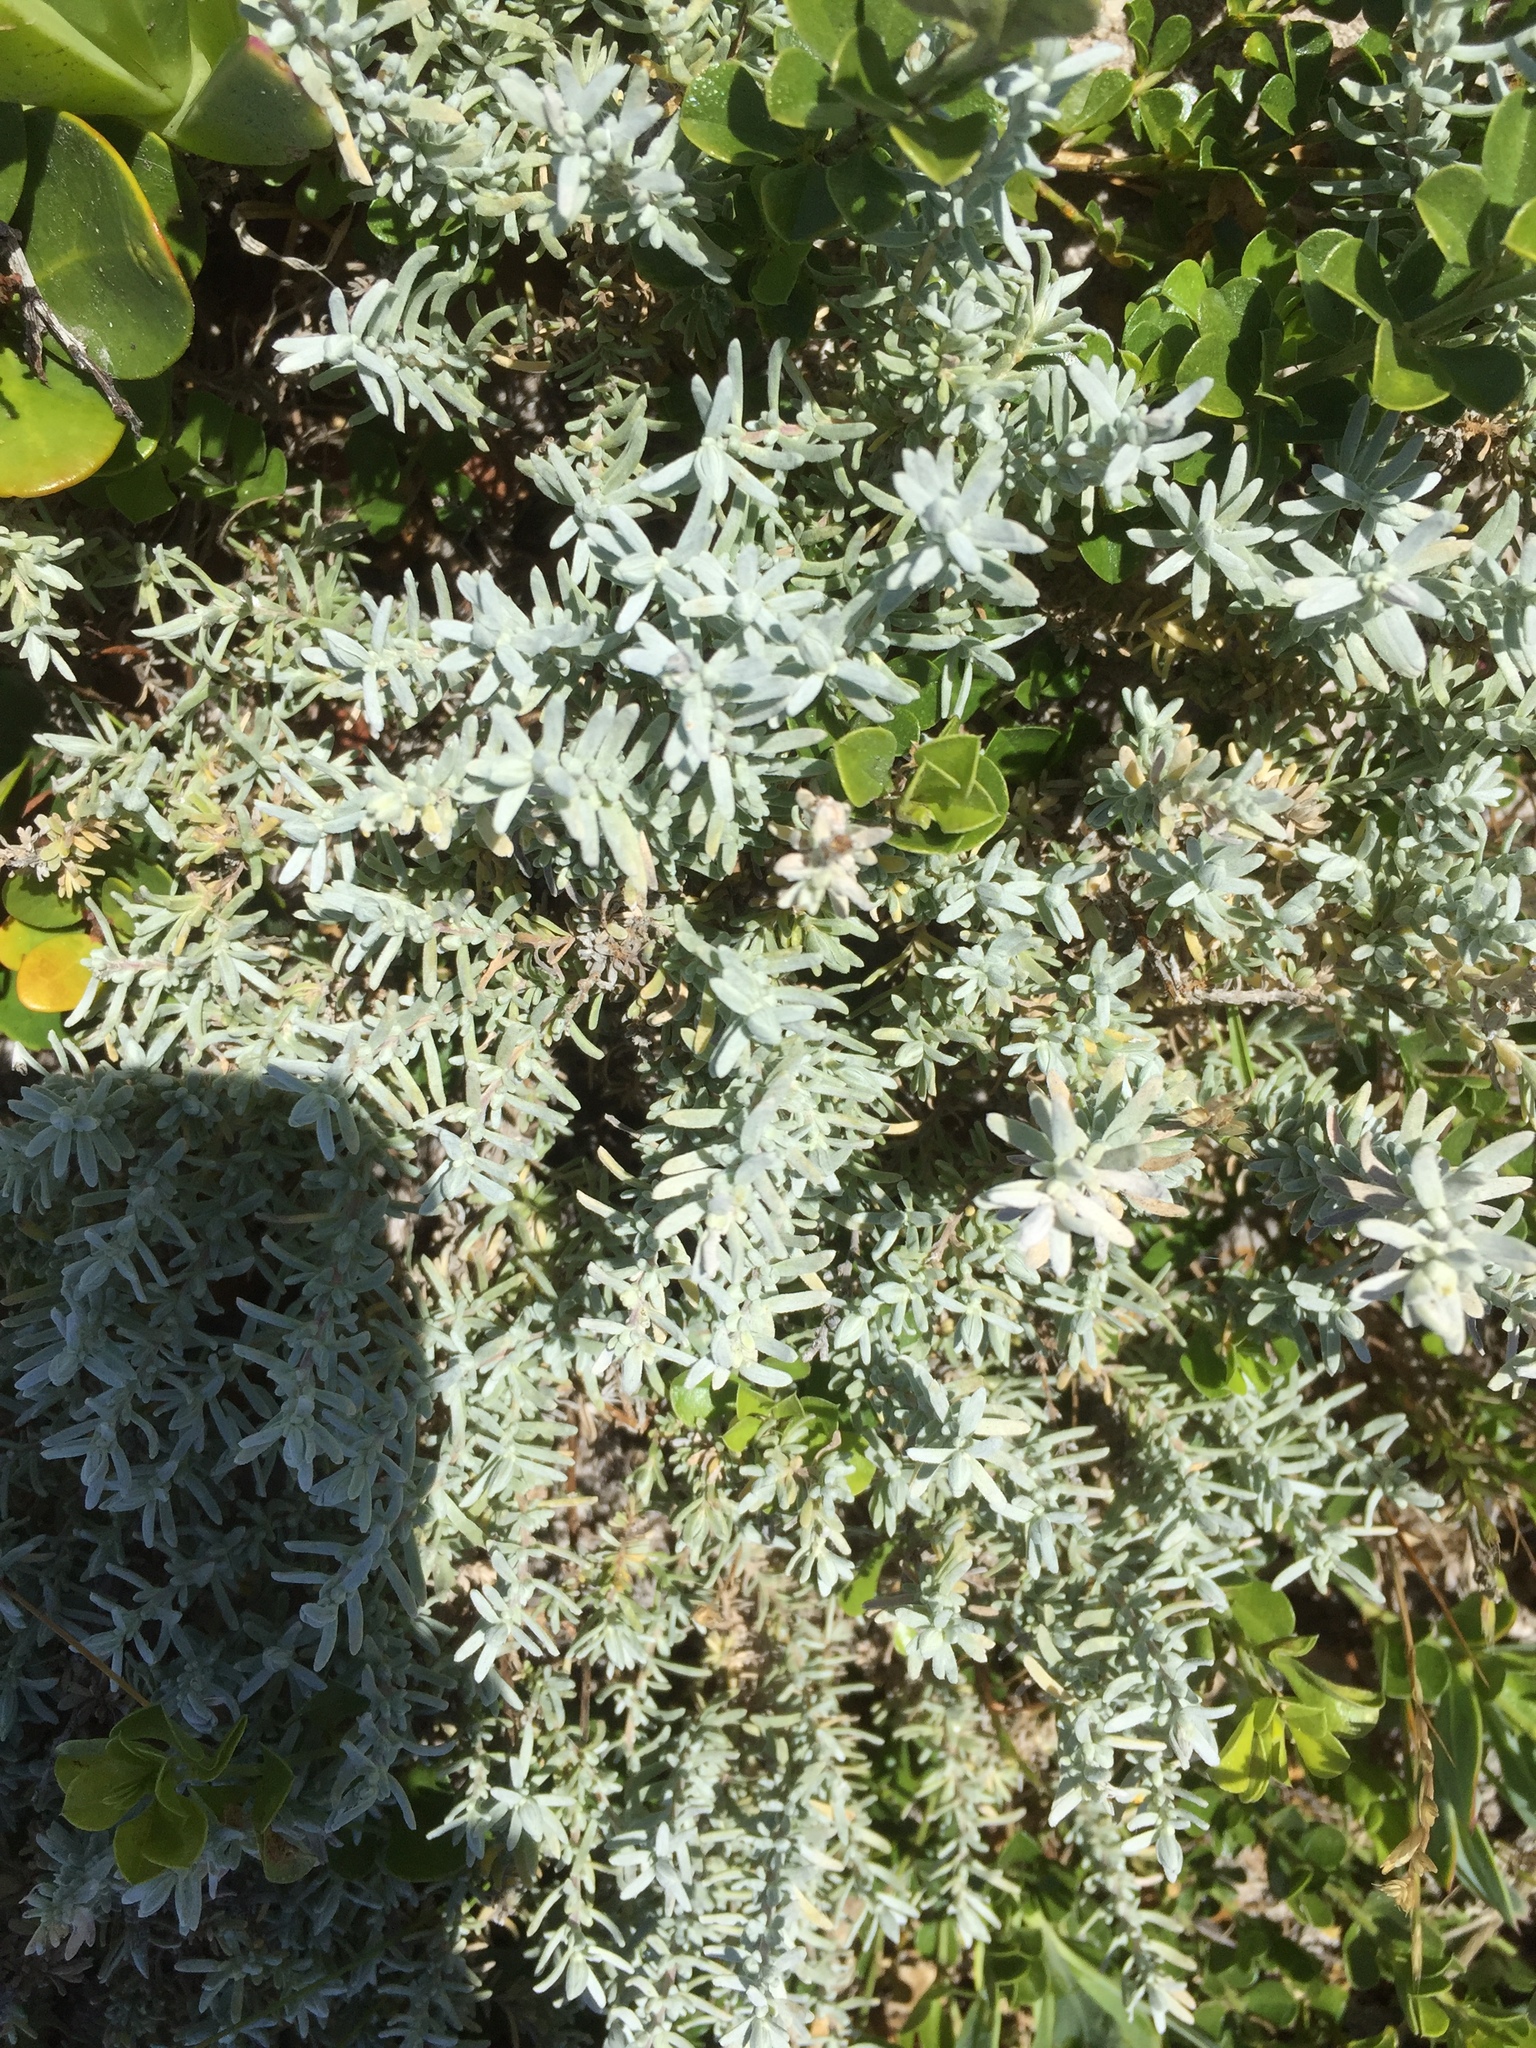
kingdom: Plantae
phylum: Tracheophyta
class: Magnoliopsida
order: Asterales
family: Asteraceae
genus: Eriocephalus
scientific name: Eriocephalus racemosus
